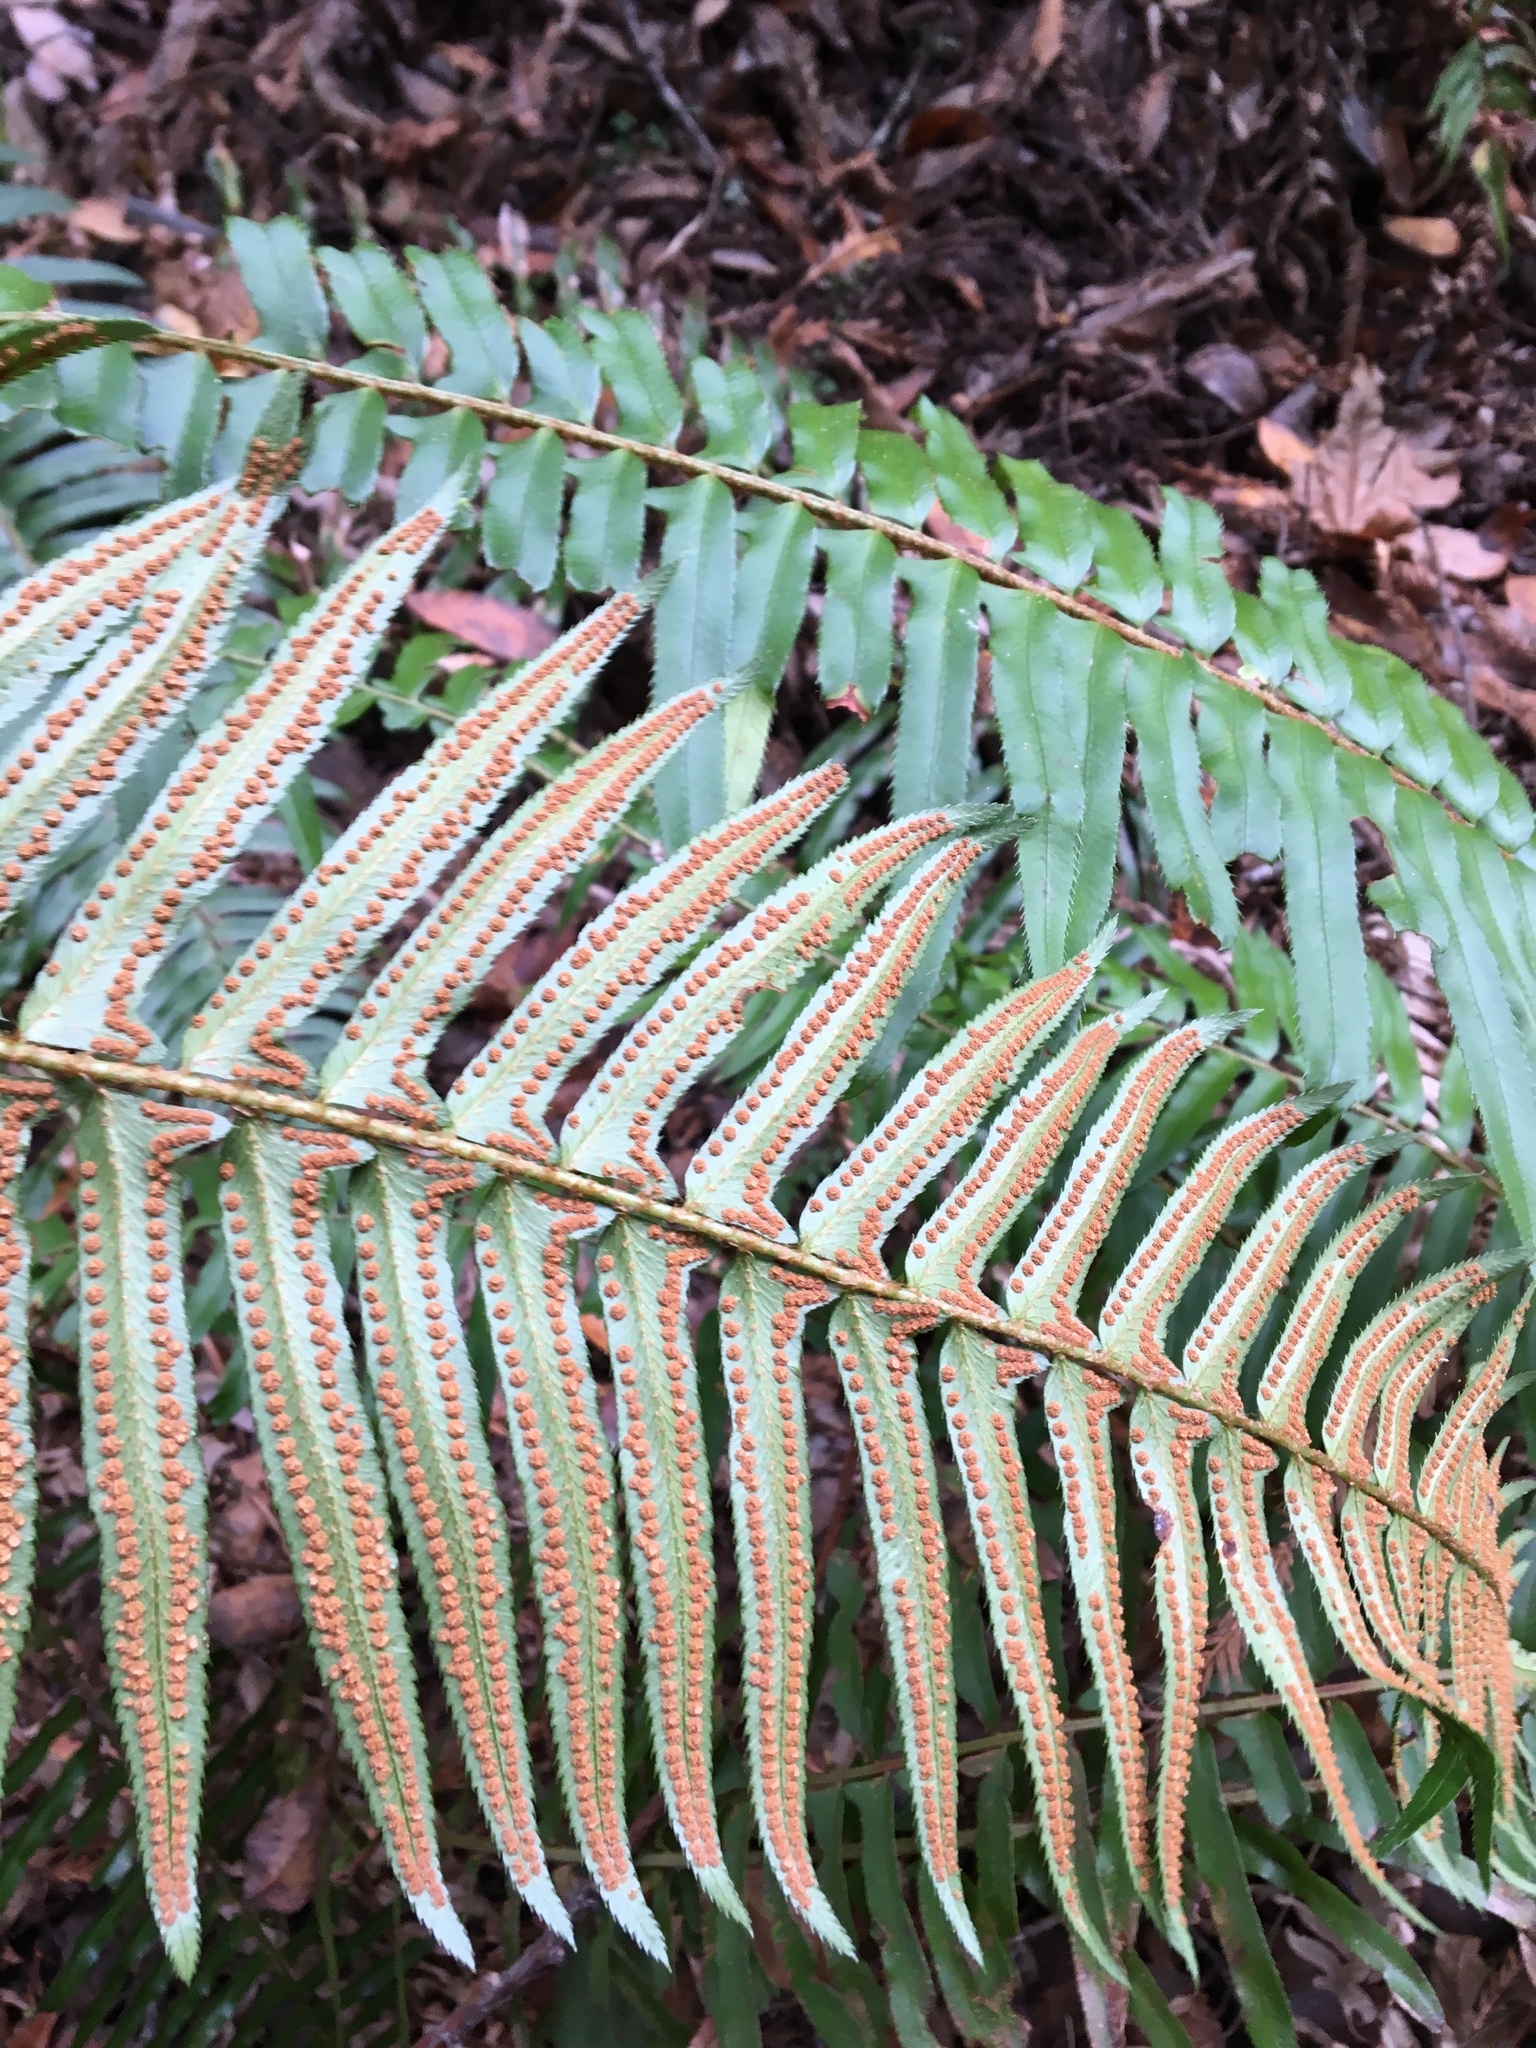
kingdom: Plantae
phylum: Tracheophyta
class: Polypodiopsida
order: Polypodiales
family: Dryopteridaceae
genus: Polystichum
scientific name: Polystichum munitum
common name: Western sword-fern
